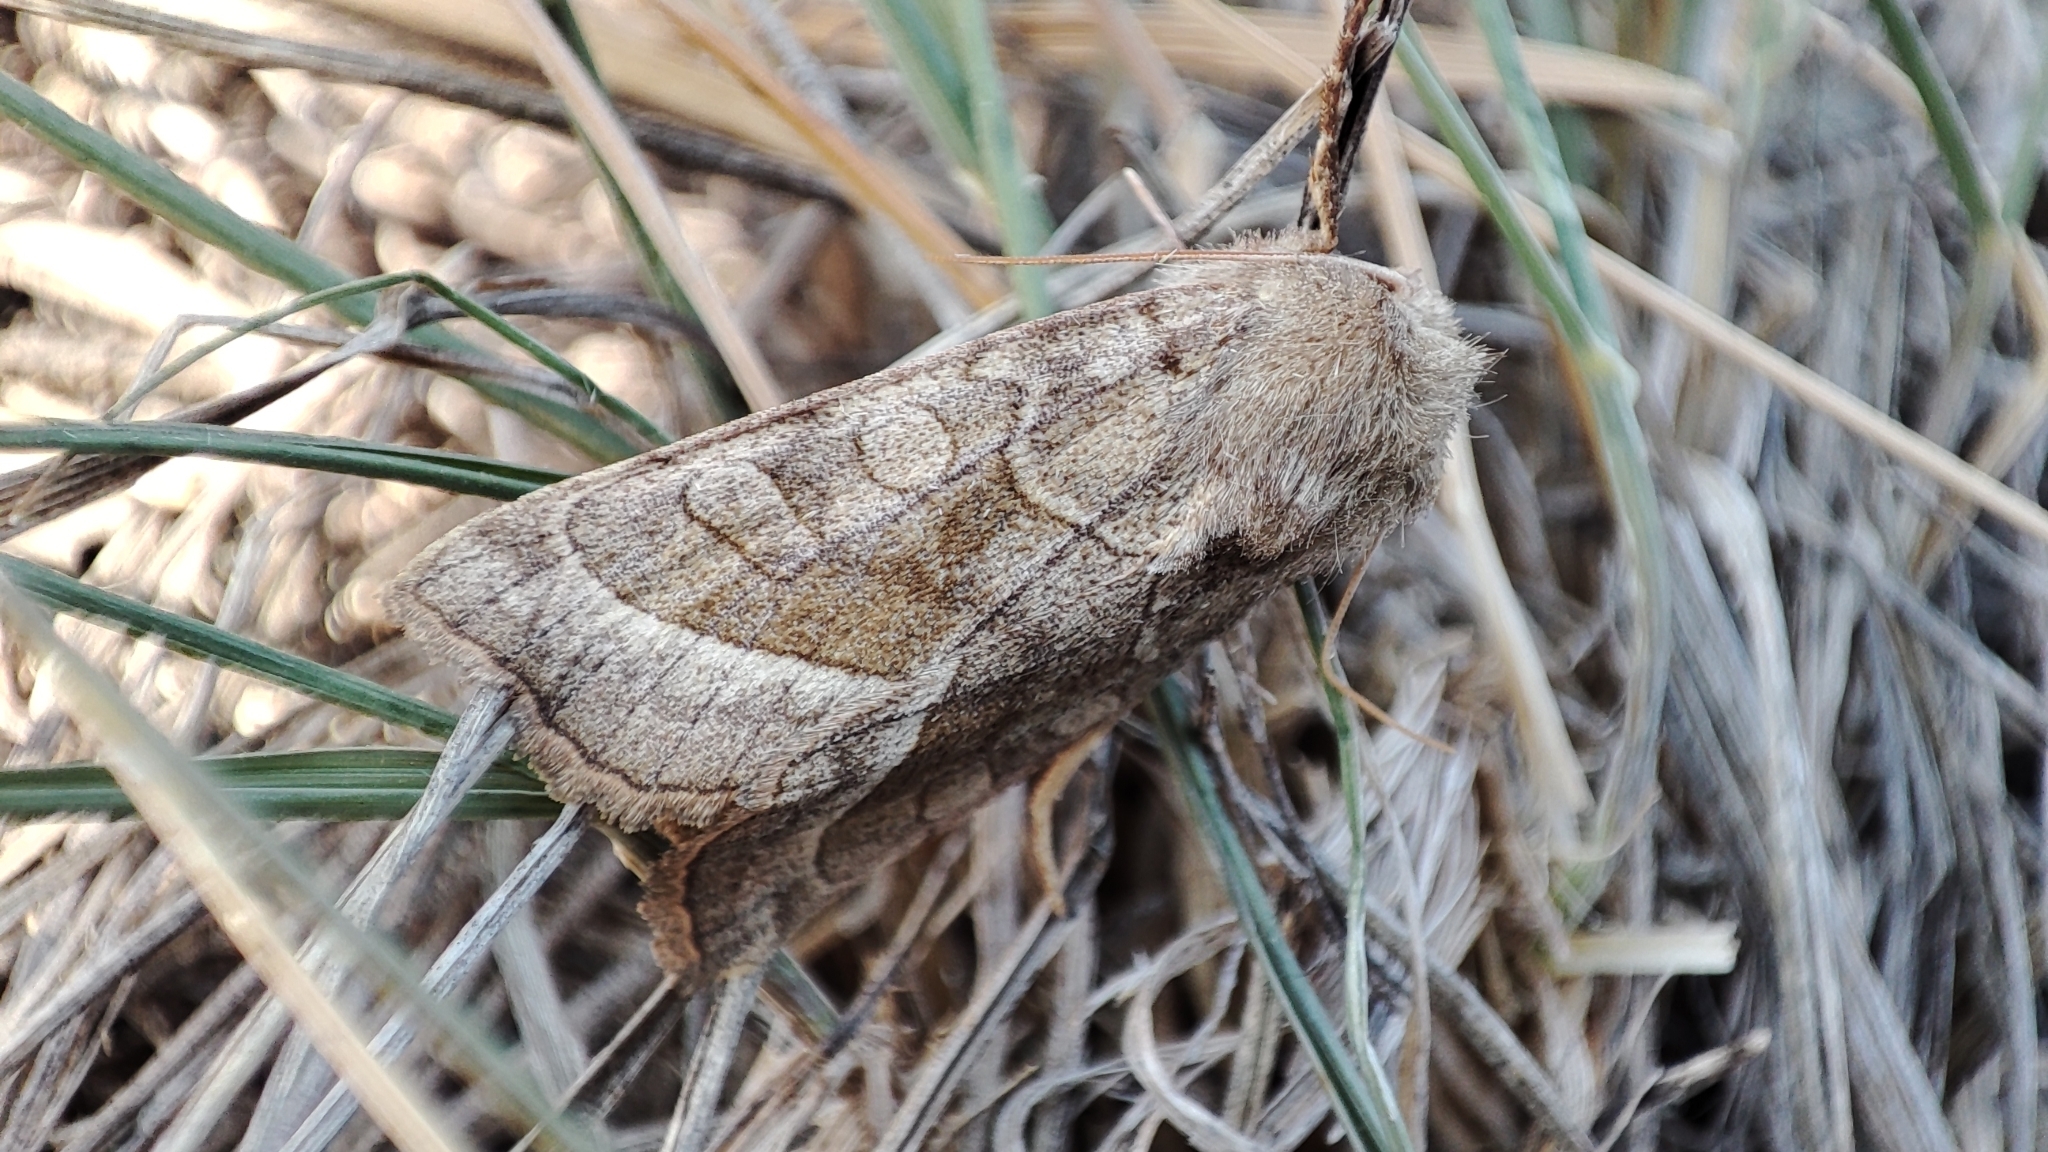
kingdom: Animalia
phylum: Arthropoda
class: Insecta
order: Lepidoptera
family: Noctuidae
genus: Hydraecia
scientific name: Hydraecia micacea
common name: Rosy rustic
